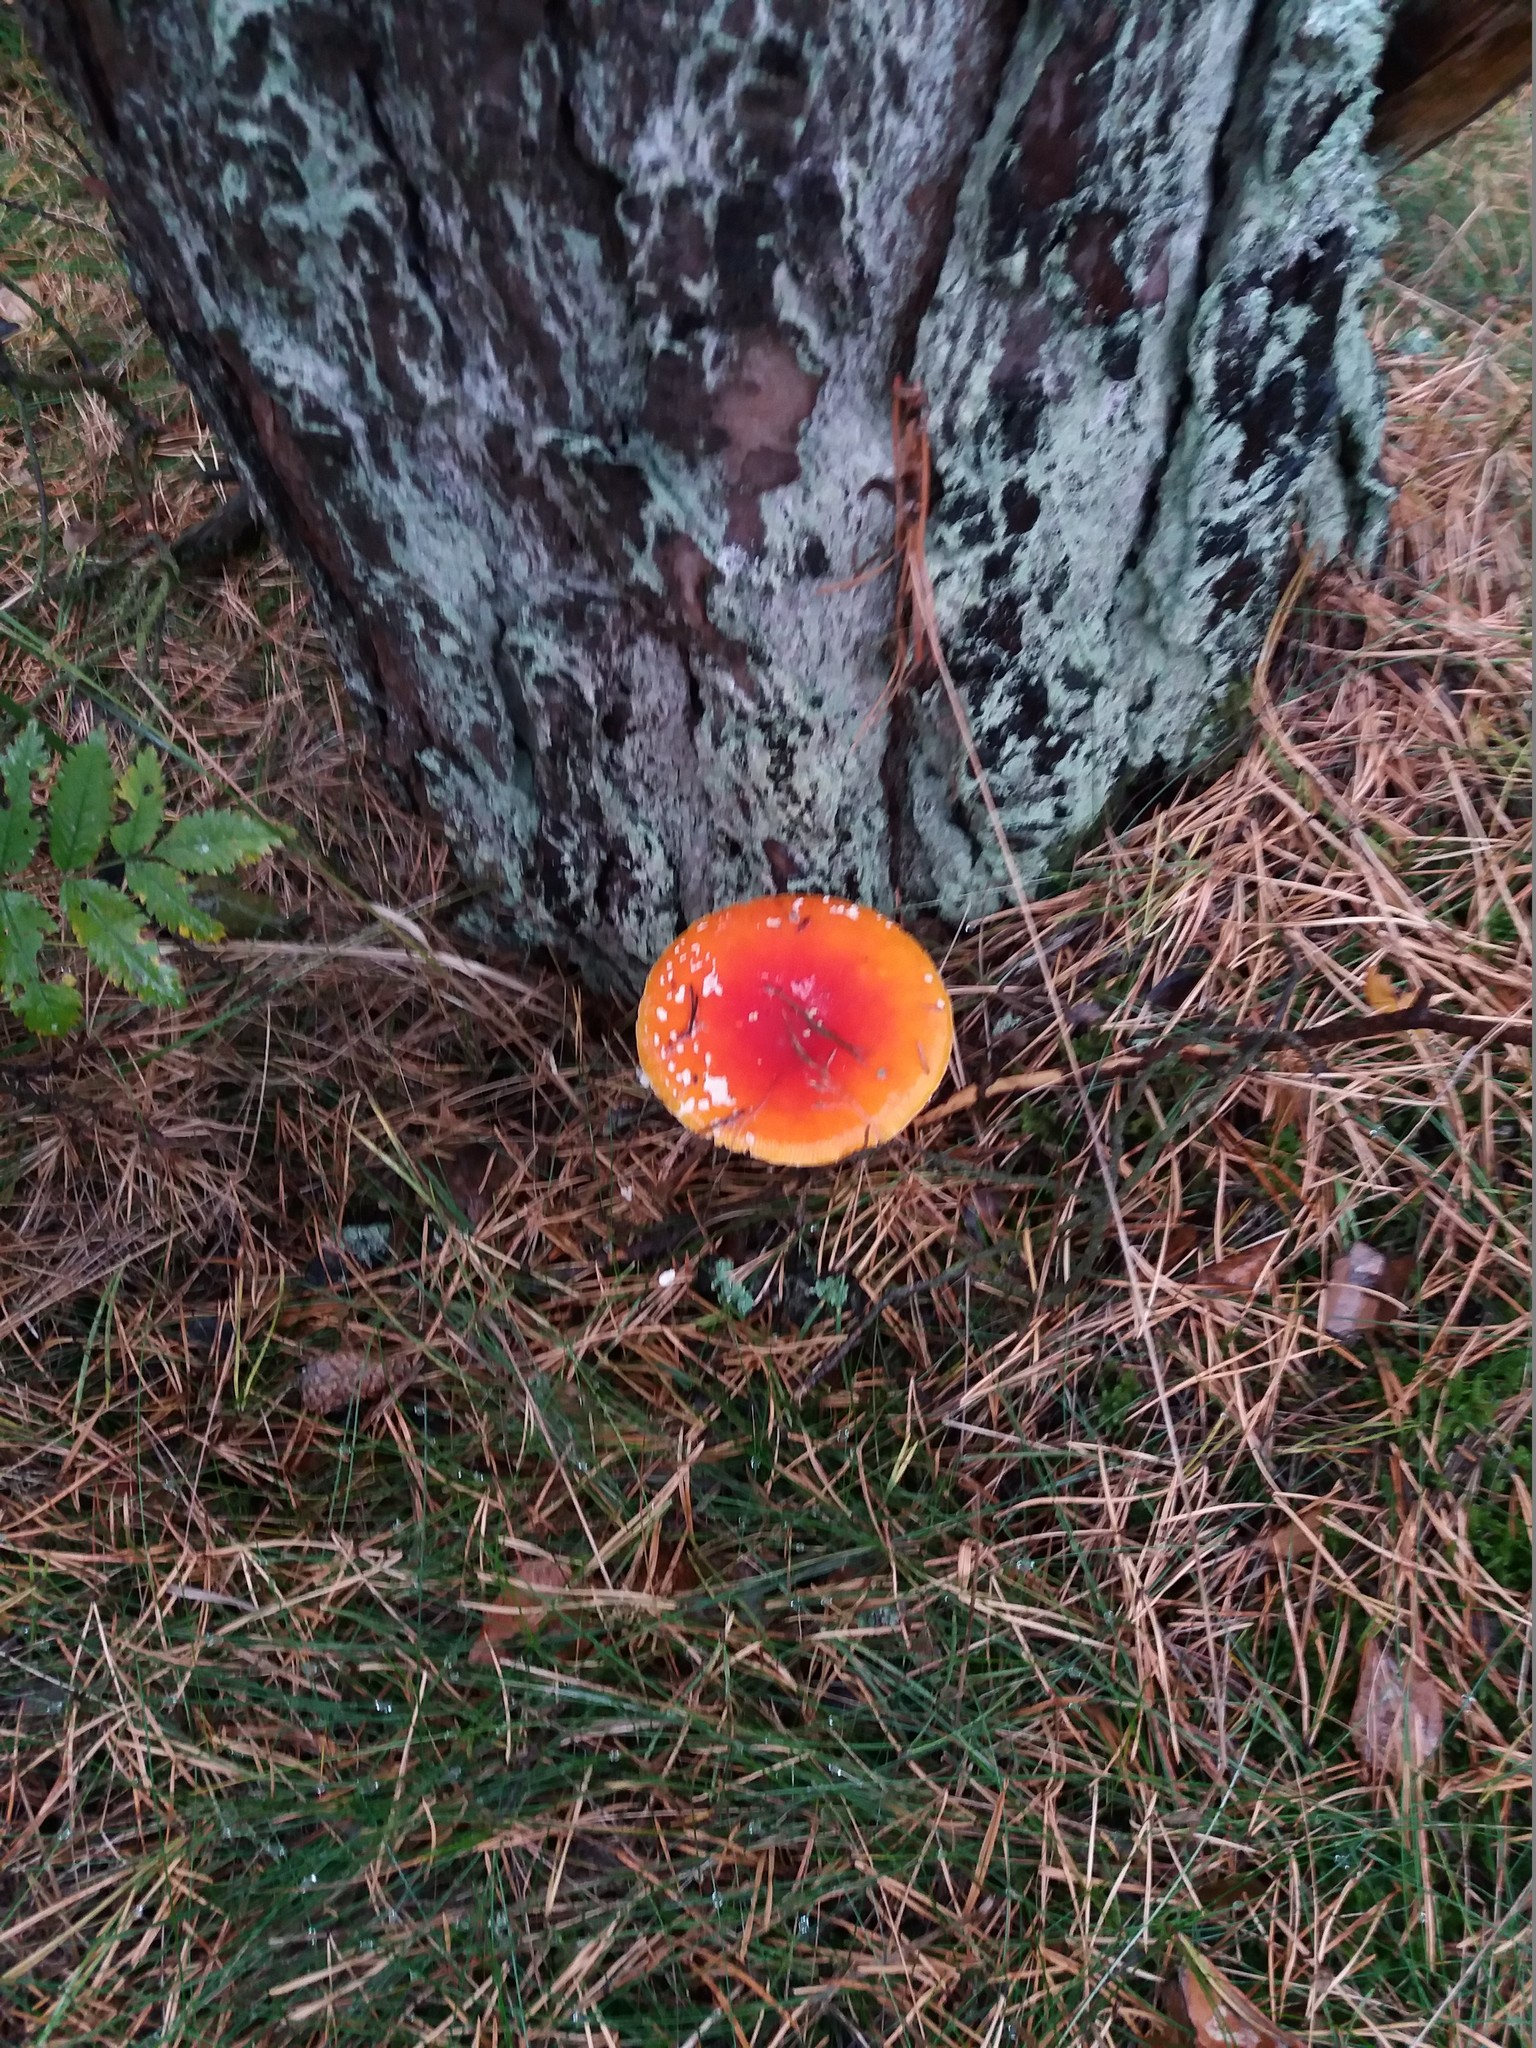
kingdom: Fungi
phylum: Basidiomycota
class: Agaricomycetes
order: Agaricales
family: Amanitaceae
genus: Amanita
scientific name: Amanita muscaria
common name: Fly agaric
